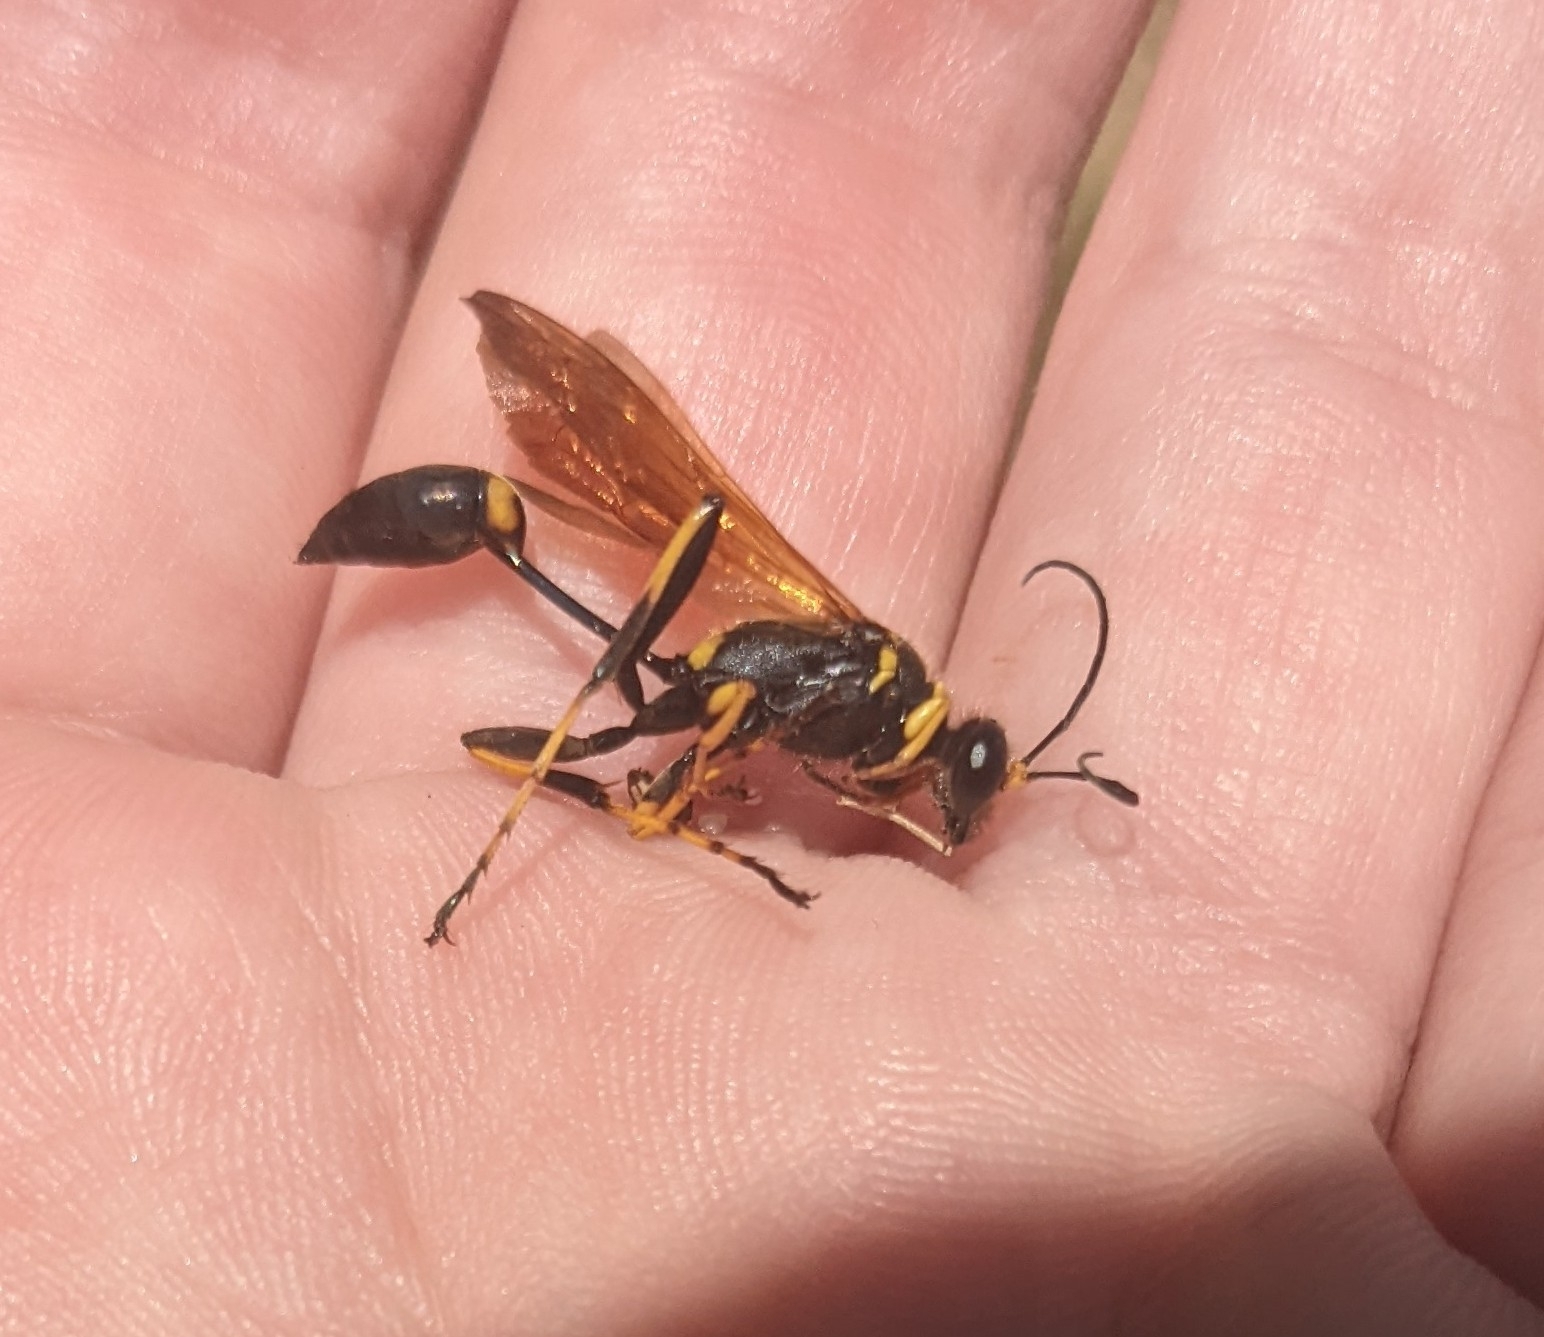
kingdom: Animalia
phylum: Arthropoda
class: Insecta
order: Hymenoptera
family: Sphecidae
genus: Sceliphron
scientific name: Sceliphron caementarium
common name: Mud dauber
